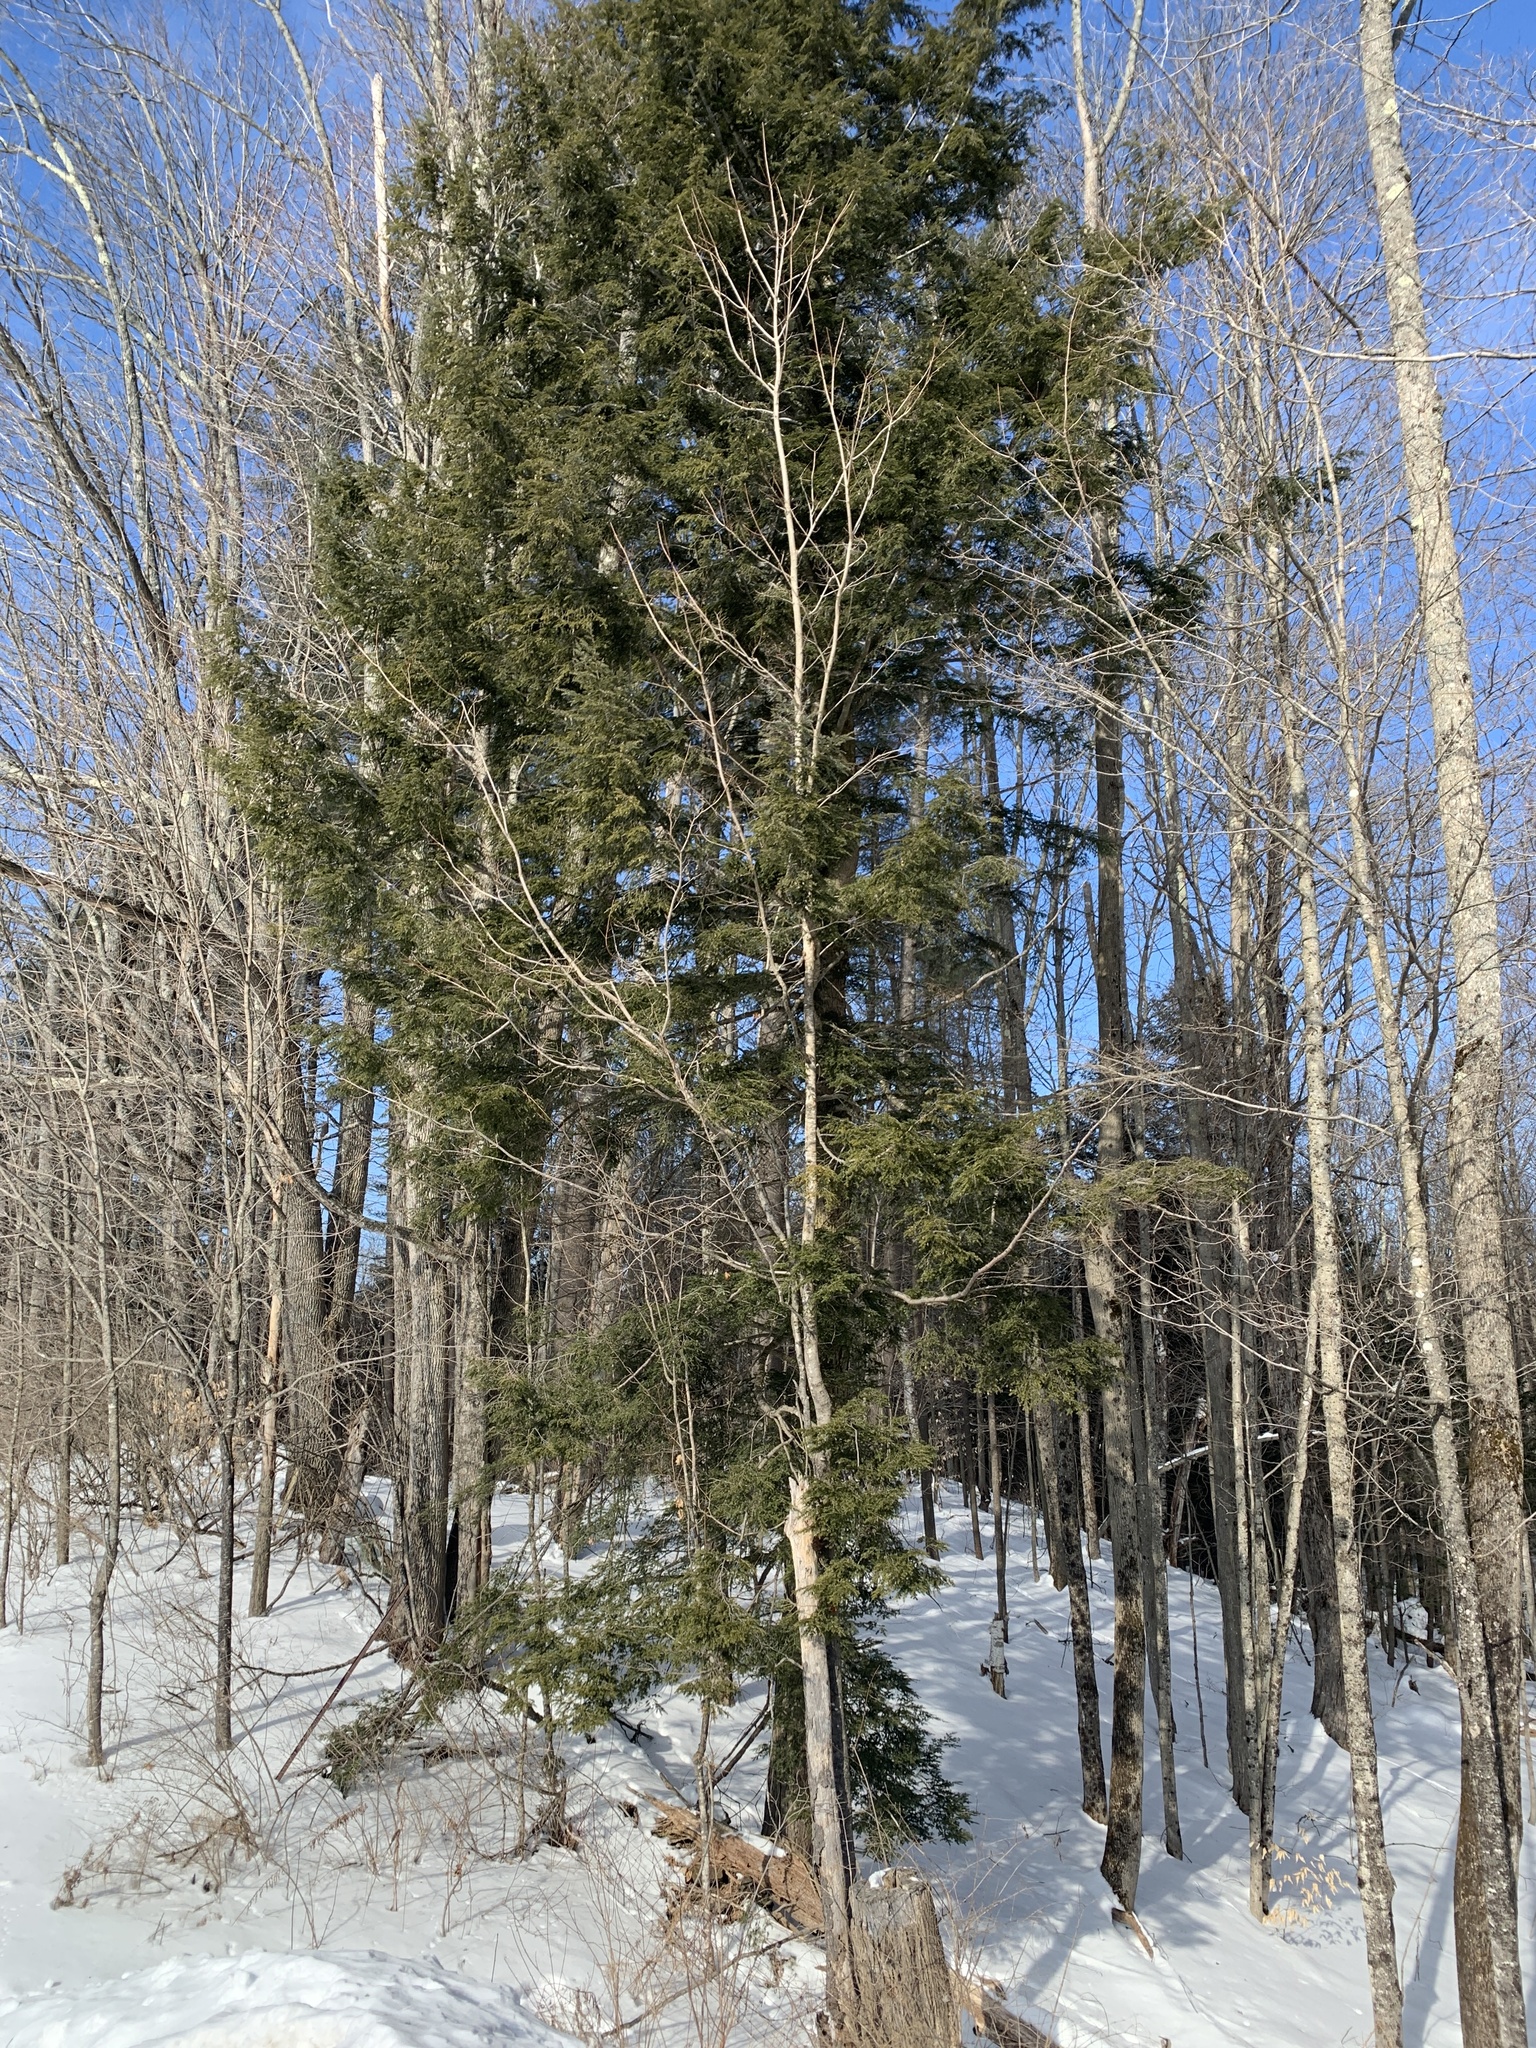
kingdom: Plantae
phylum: Tracheophyta
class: Pinopsida
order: Pinales
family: Pinaceae
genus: Tsuga
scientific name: Tsuga canadensis
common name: Eastern hemlock
